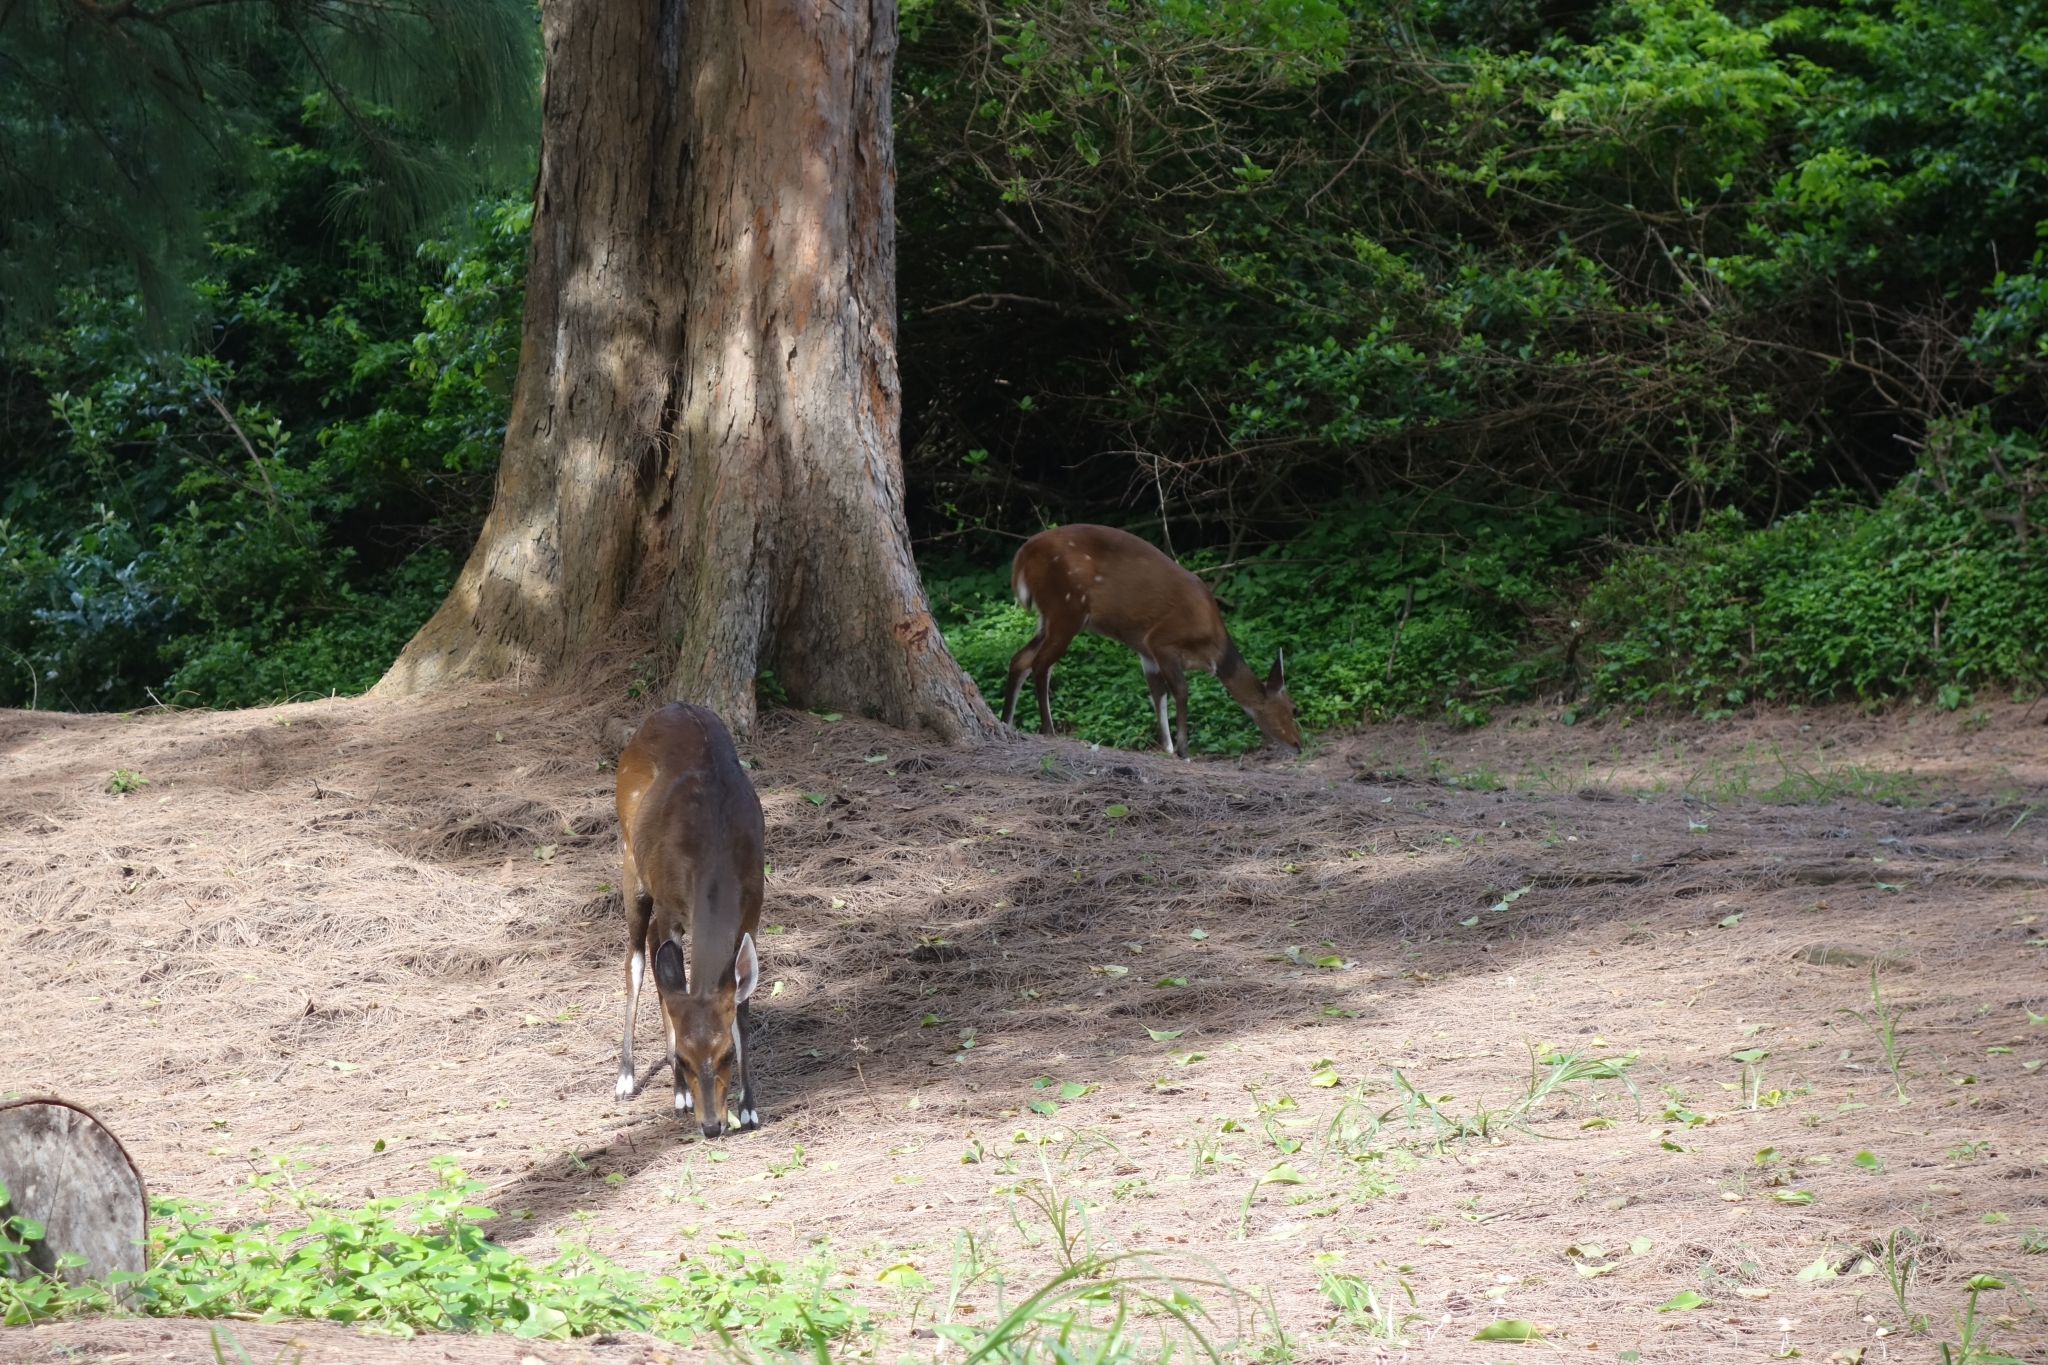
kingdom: Animalia
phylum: Chordata
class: Mammalia
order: Artiodactyla
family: Bovidae
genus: Tragelaphus
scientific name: Tragelaphus scriptus
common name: Bushbuck
